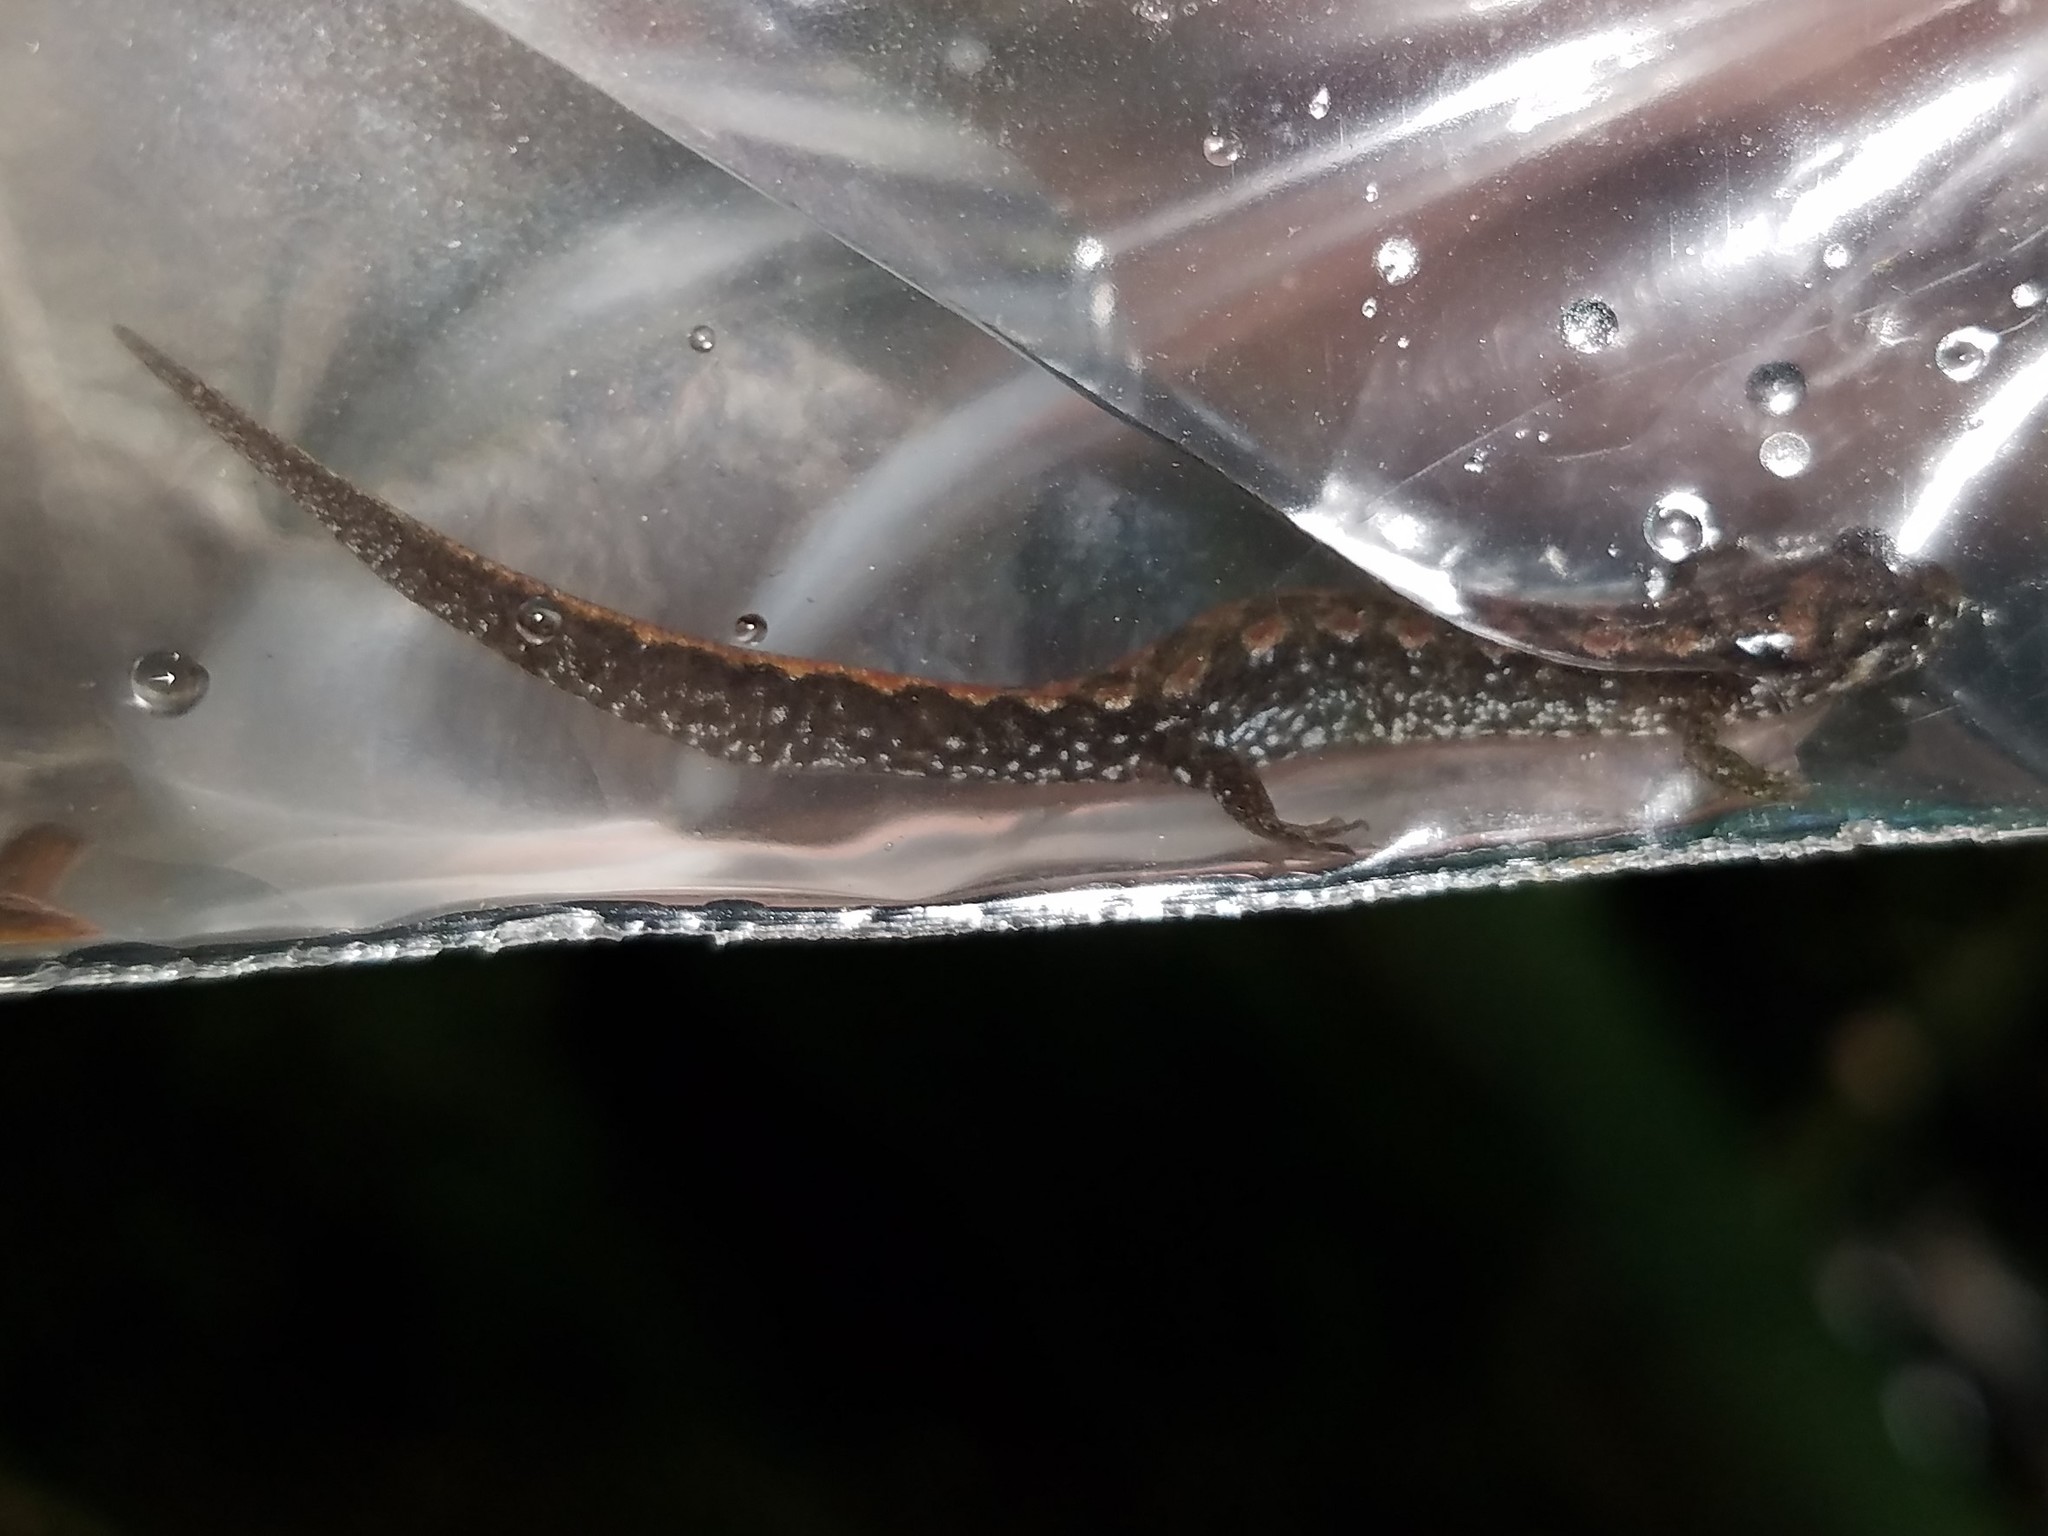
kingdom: Animalia
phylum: Chordata
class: Amphibia
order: Caudata
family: Plethodontidae
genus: Desmognathus
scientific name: Desmognathus
